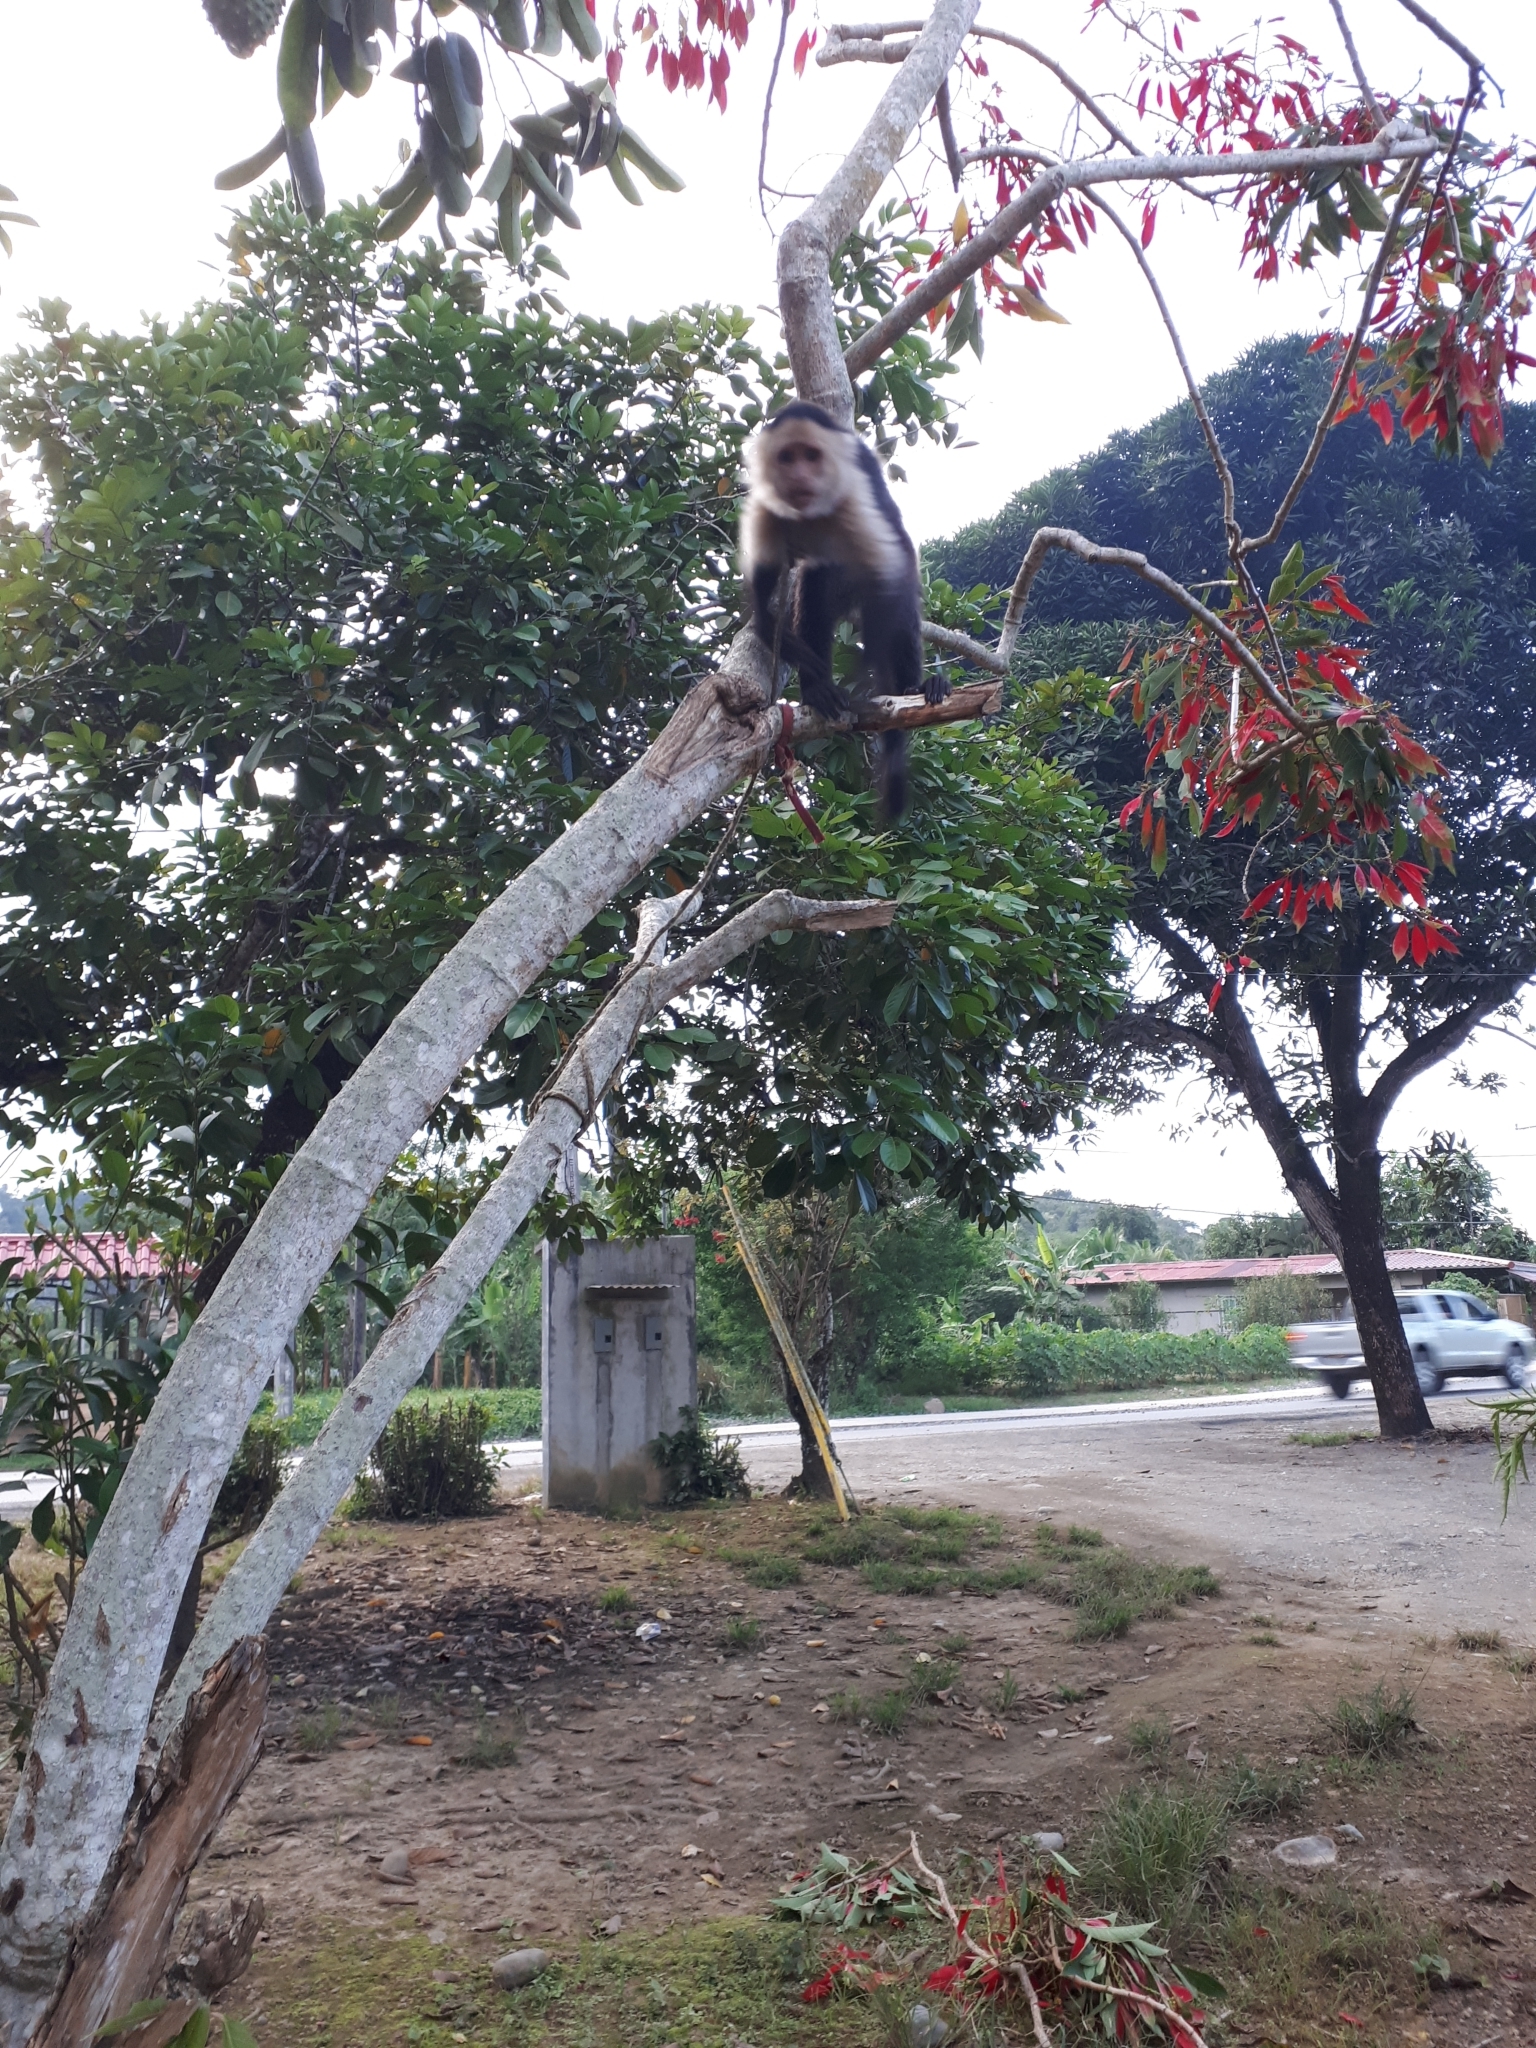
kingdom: Animalia
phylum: Chordata
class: Mammalia
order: Primates
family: Cebidae
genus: Cebus
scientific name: Cebus imitator
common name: Panamanian white-faced capuchin
